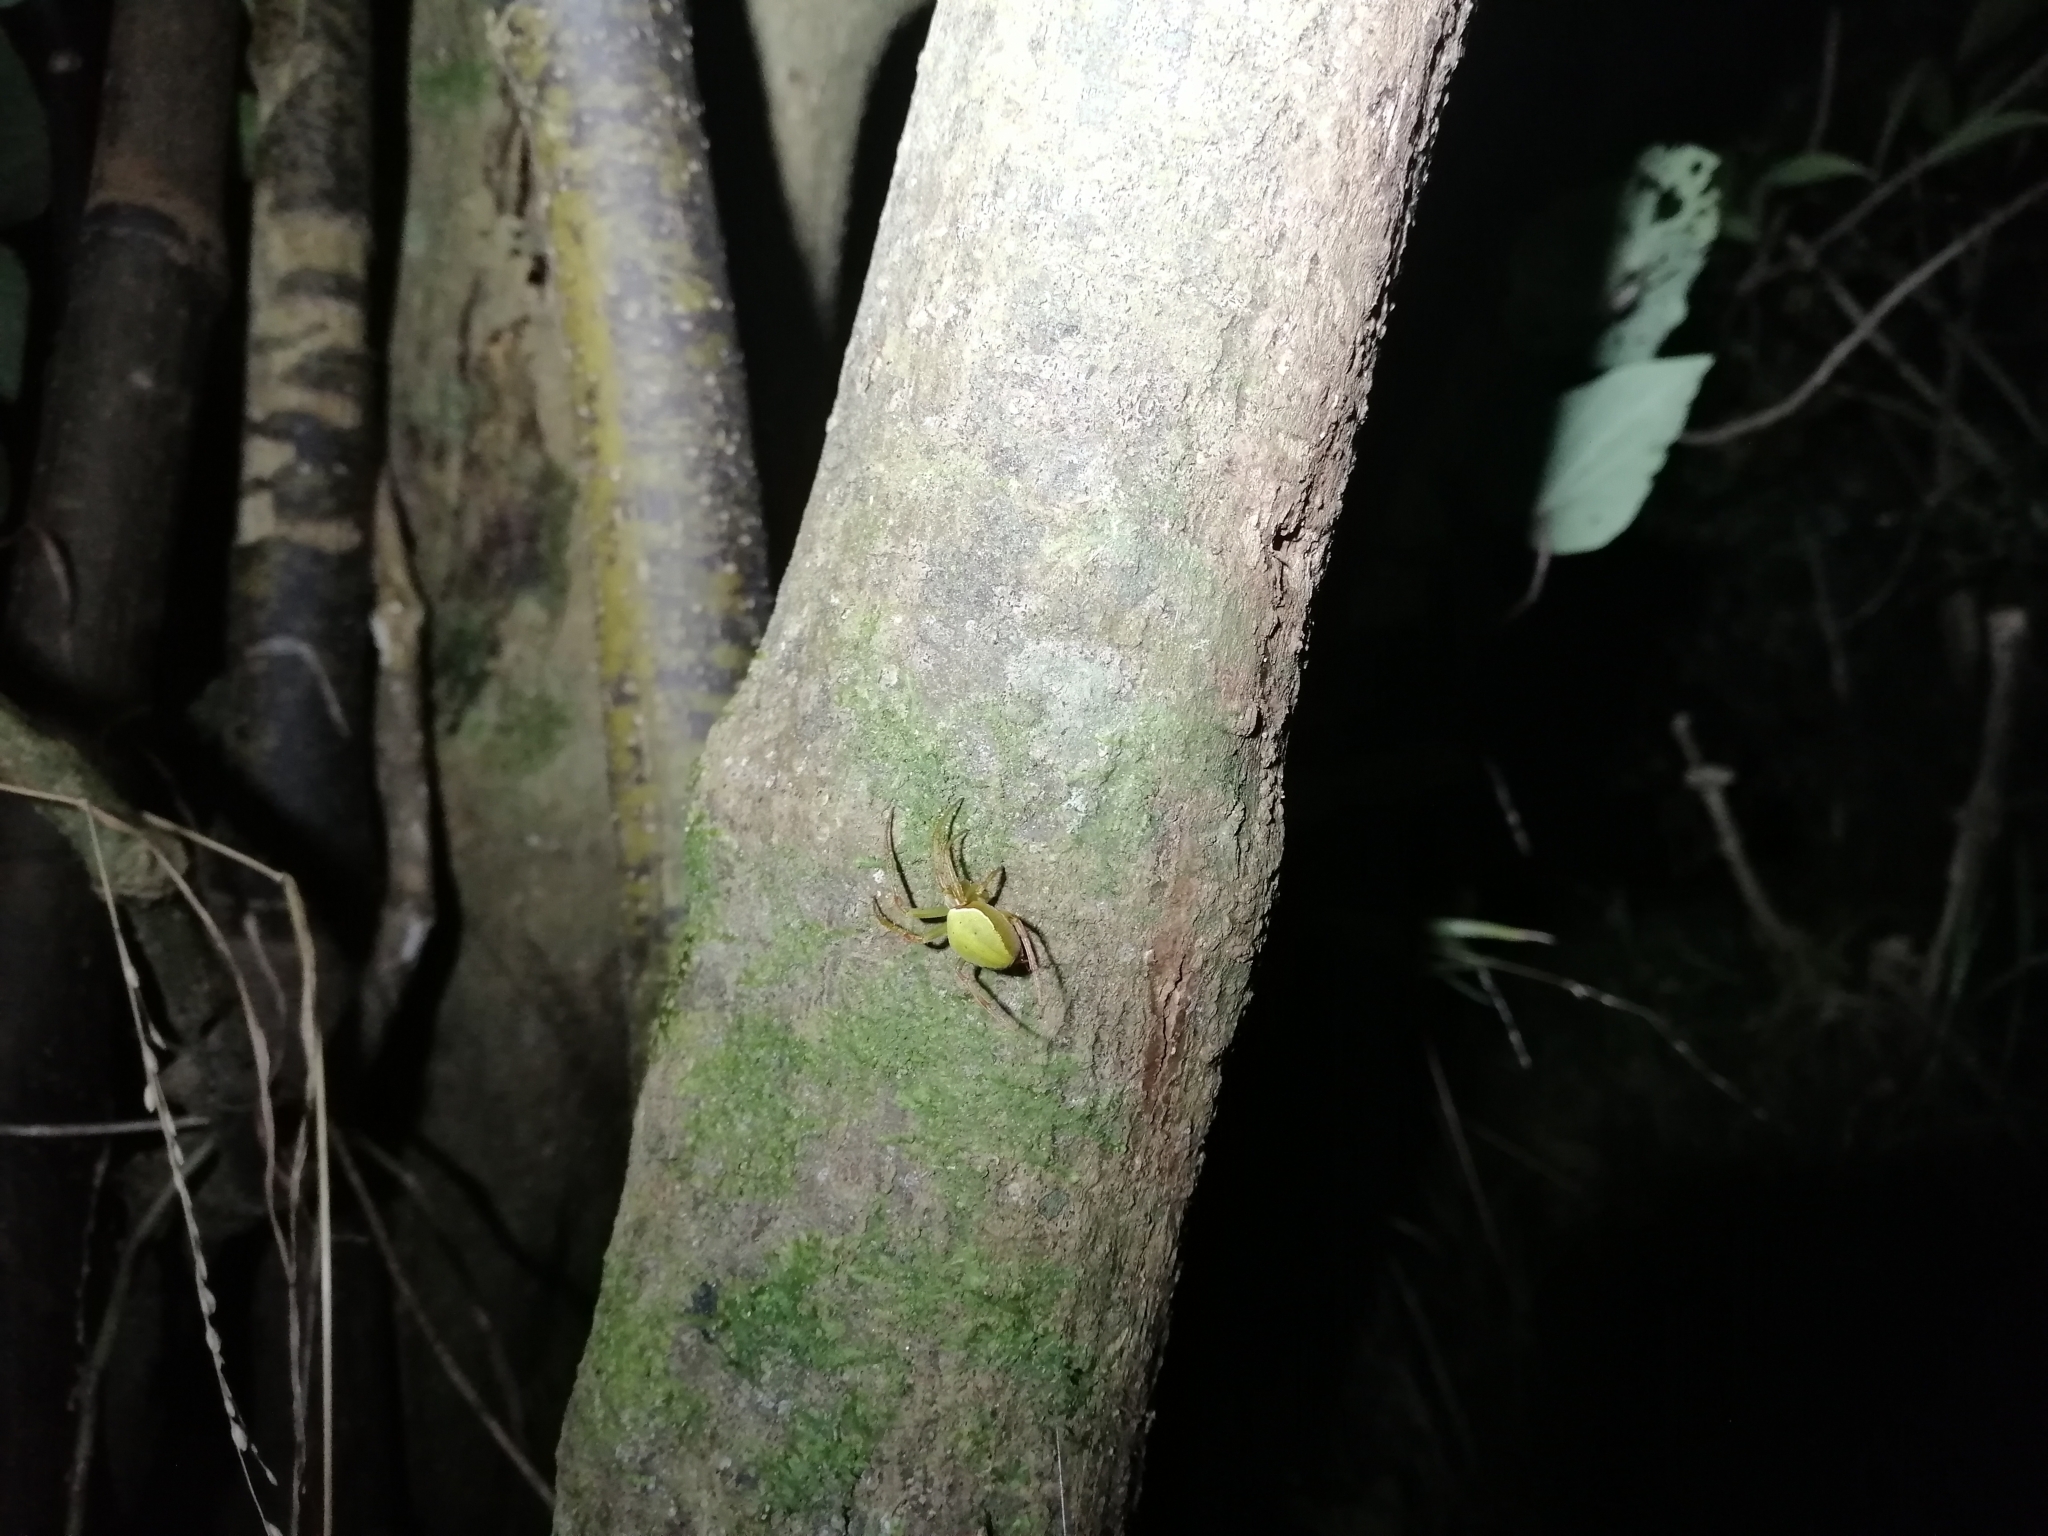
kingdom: Animalia
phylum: Arthropoda
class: Arachnida
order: Araneae
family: Araneidae
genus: Colaranea
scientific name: Colaranea viriditas
